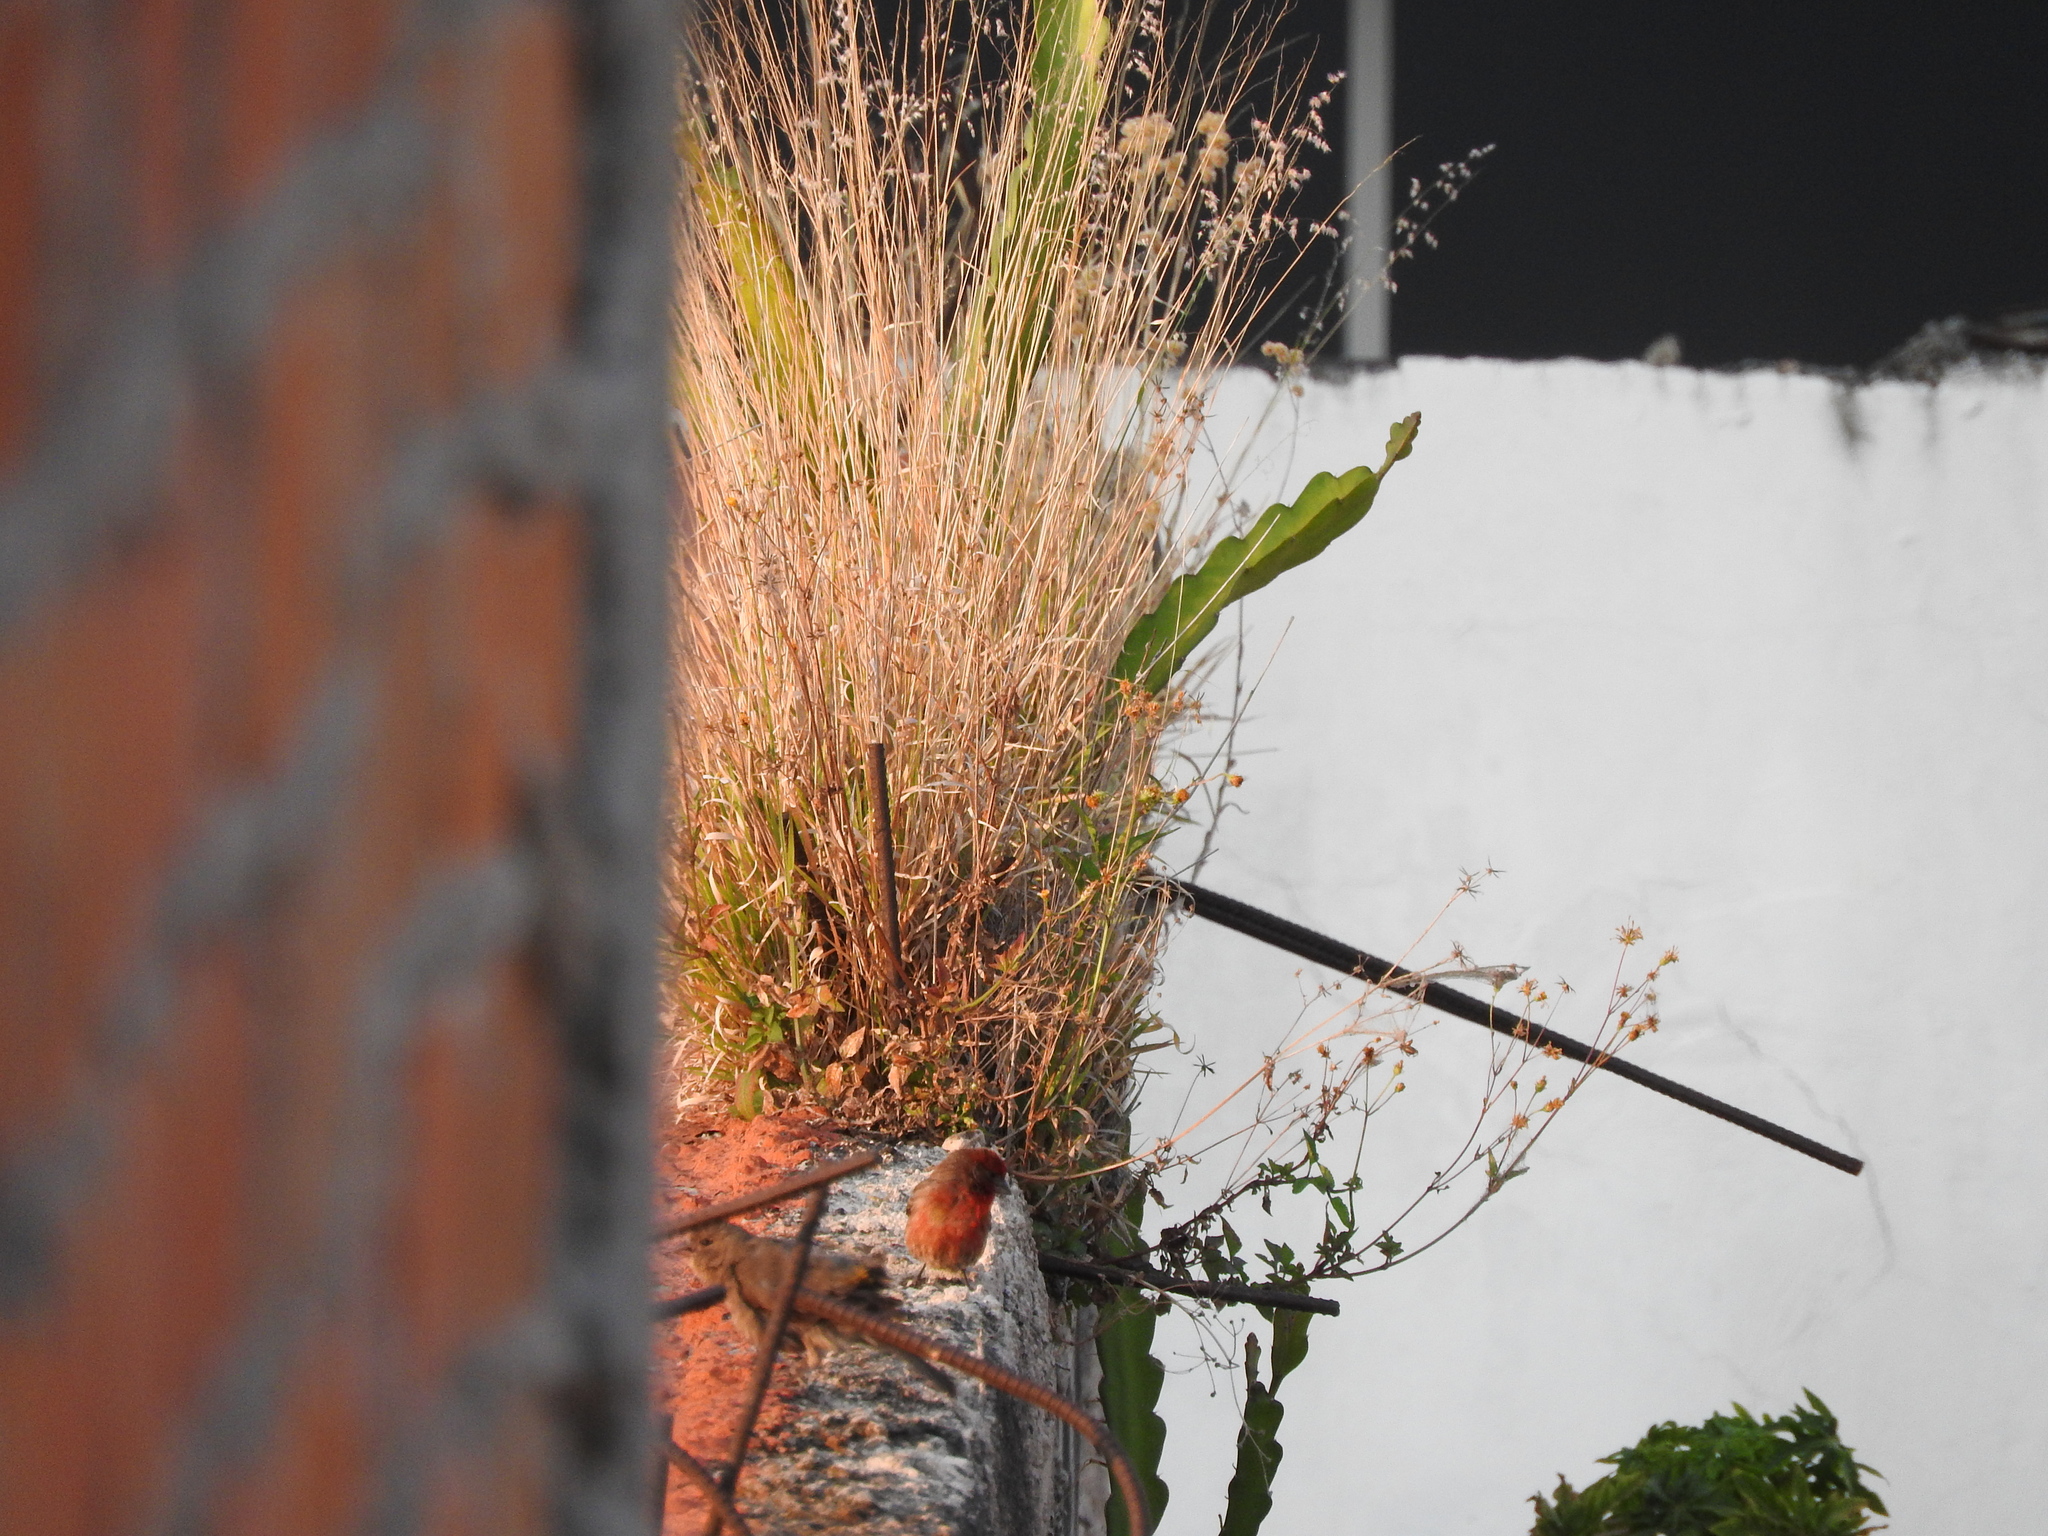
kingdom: Plantae
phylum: Tracheophyta
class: Liliopsida
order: Poales
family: Poaceae
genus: Melinis
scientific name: Melinis repens
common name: Rose natal grass
